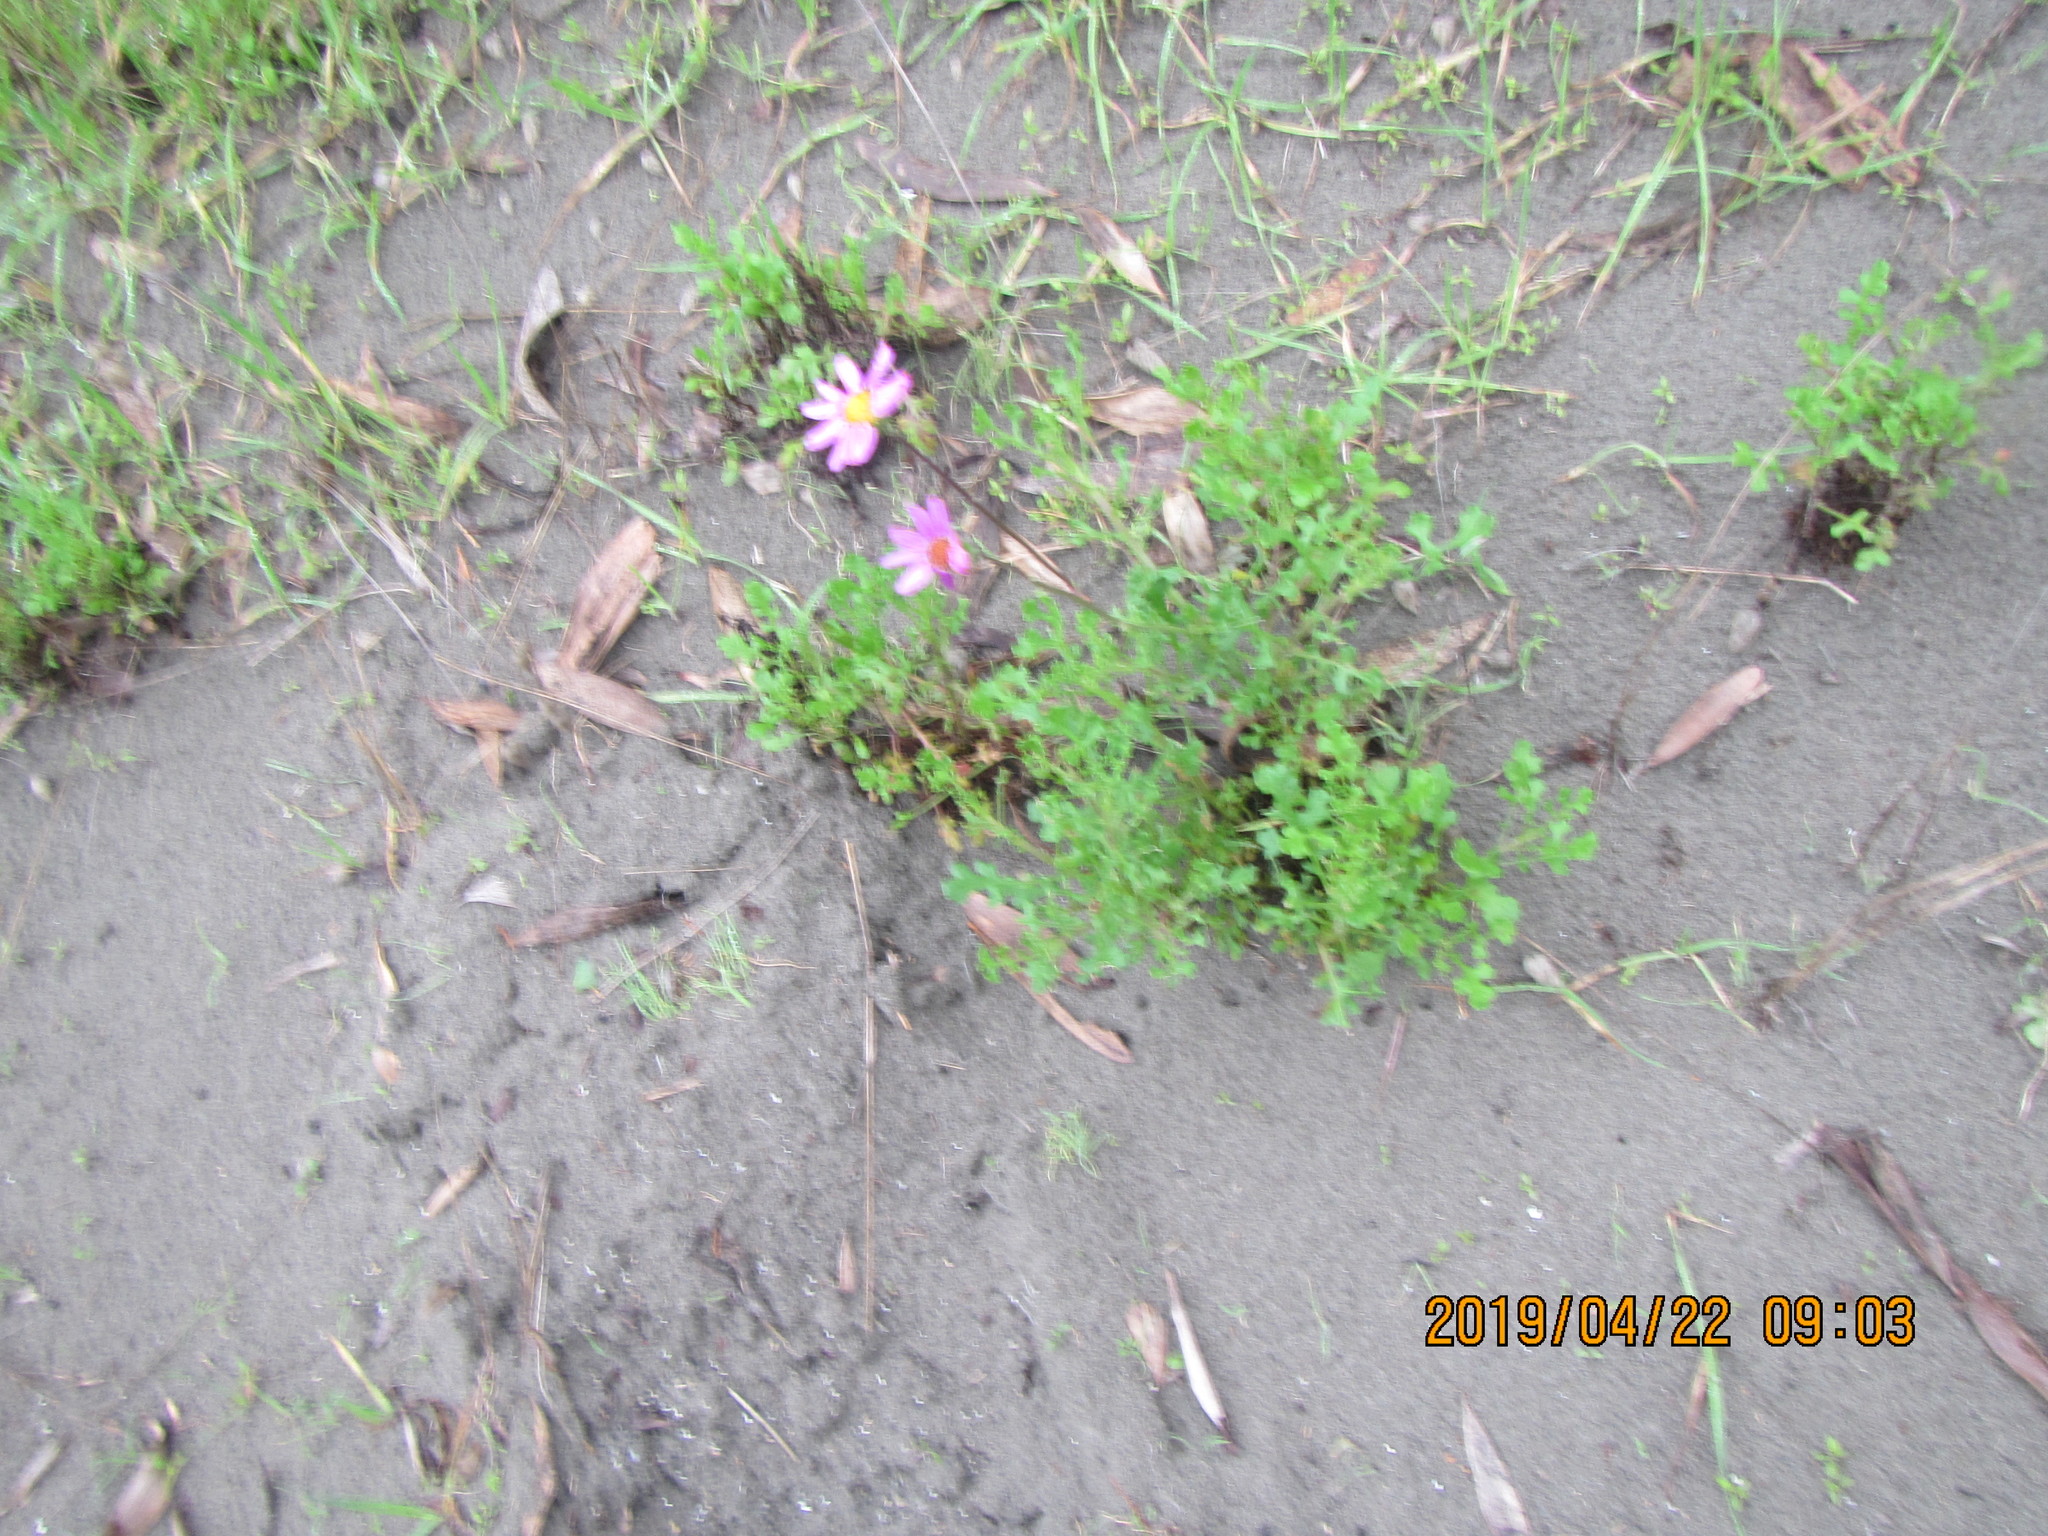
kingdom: Plantae
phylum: Tracheophyta
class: Magnoliopsida
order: Asterales
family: Asteraceae
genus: Senecio
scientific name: Senecio elegans
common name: Purple groundsel
